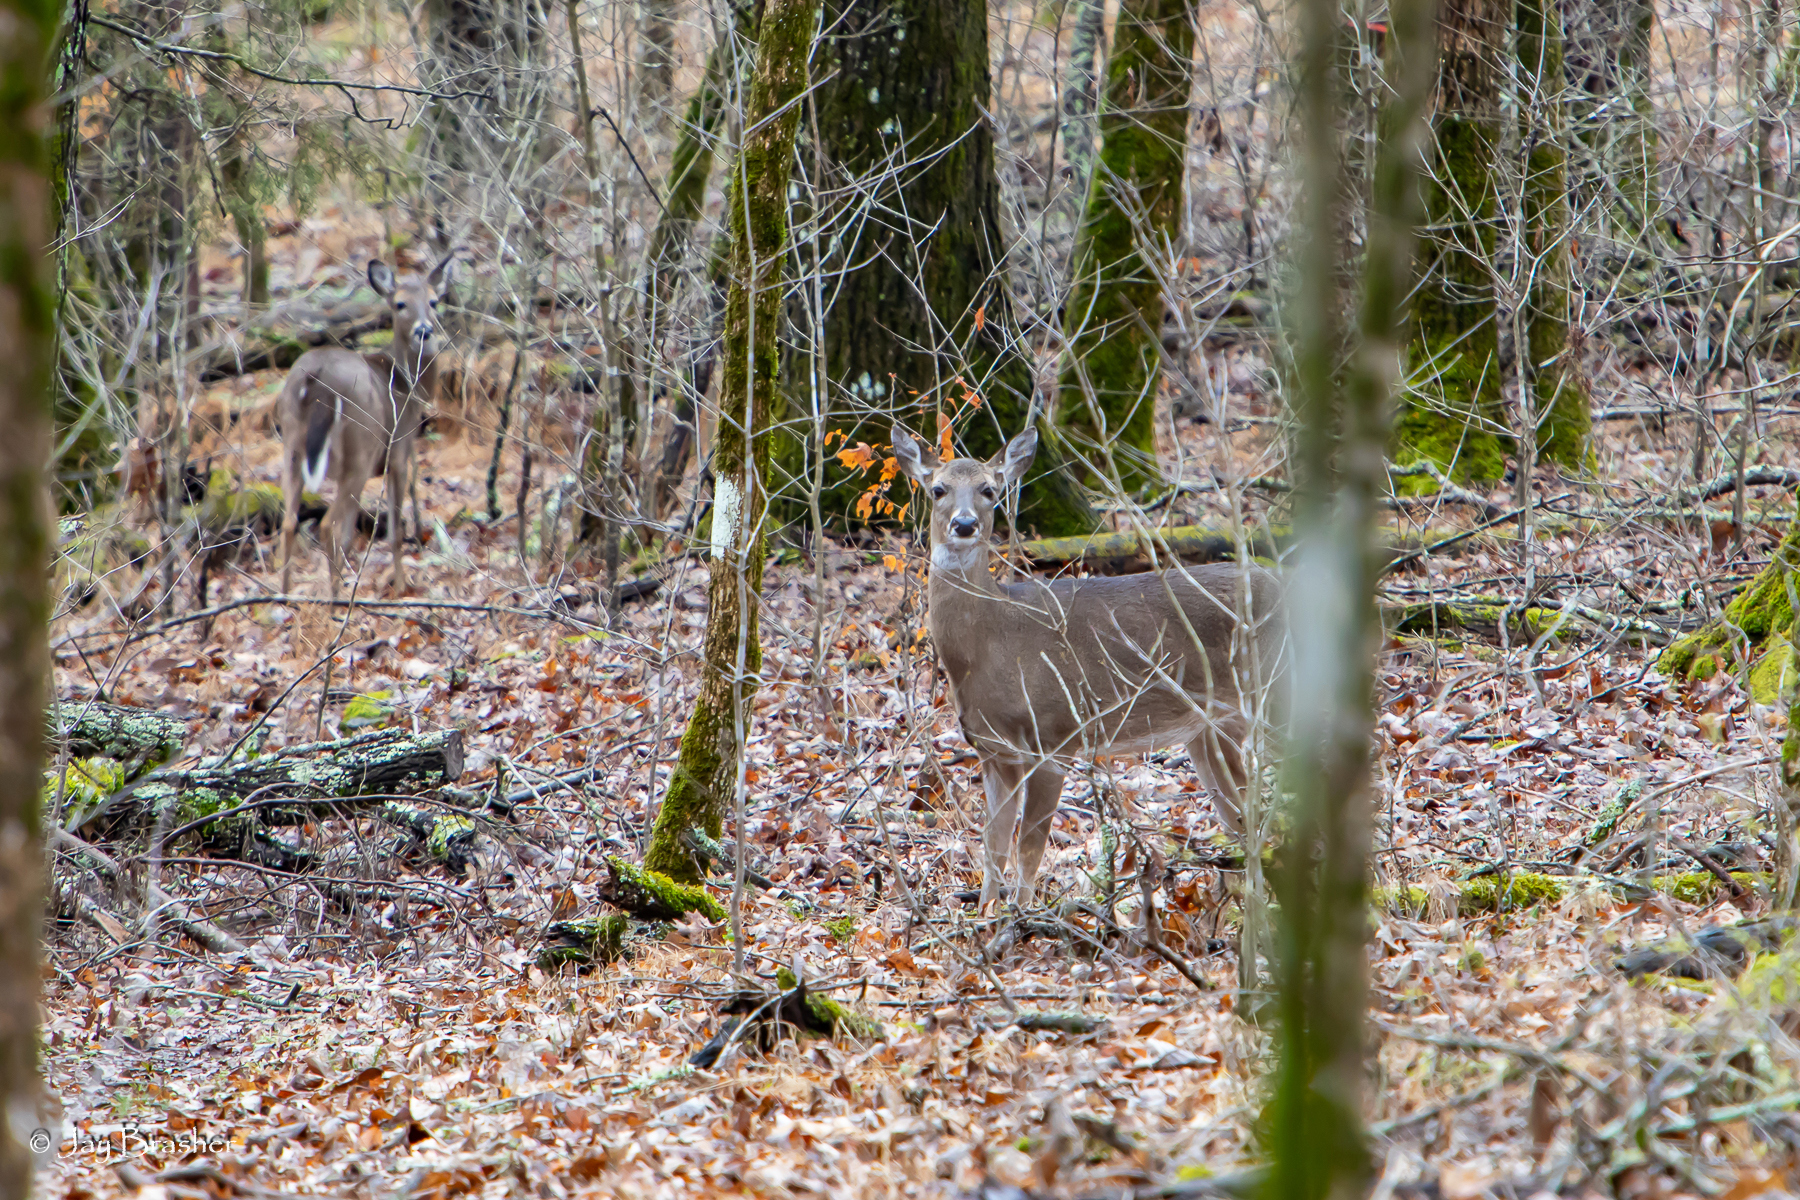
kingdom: Animalia
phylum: Chordata
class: Mammalia
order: Artiodactyla
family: Cervidae
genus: Odocoileus
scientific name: Odocoileus virginianus
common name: White-tailed deer
